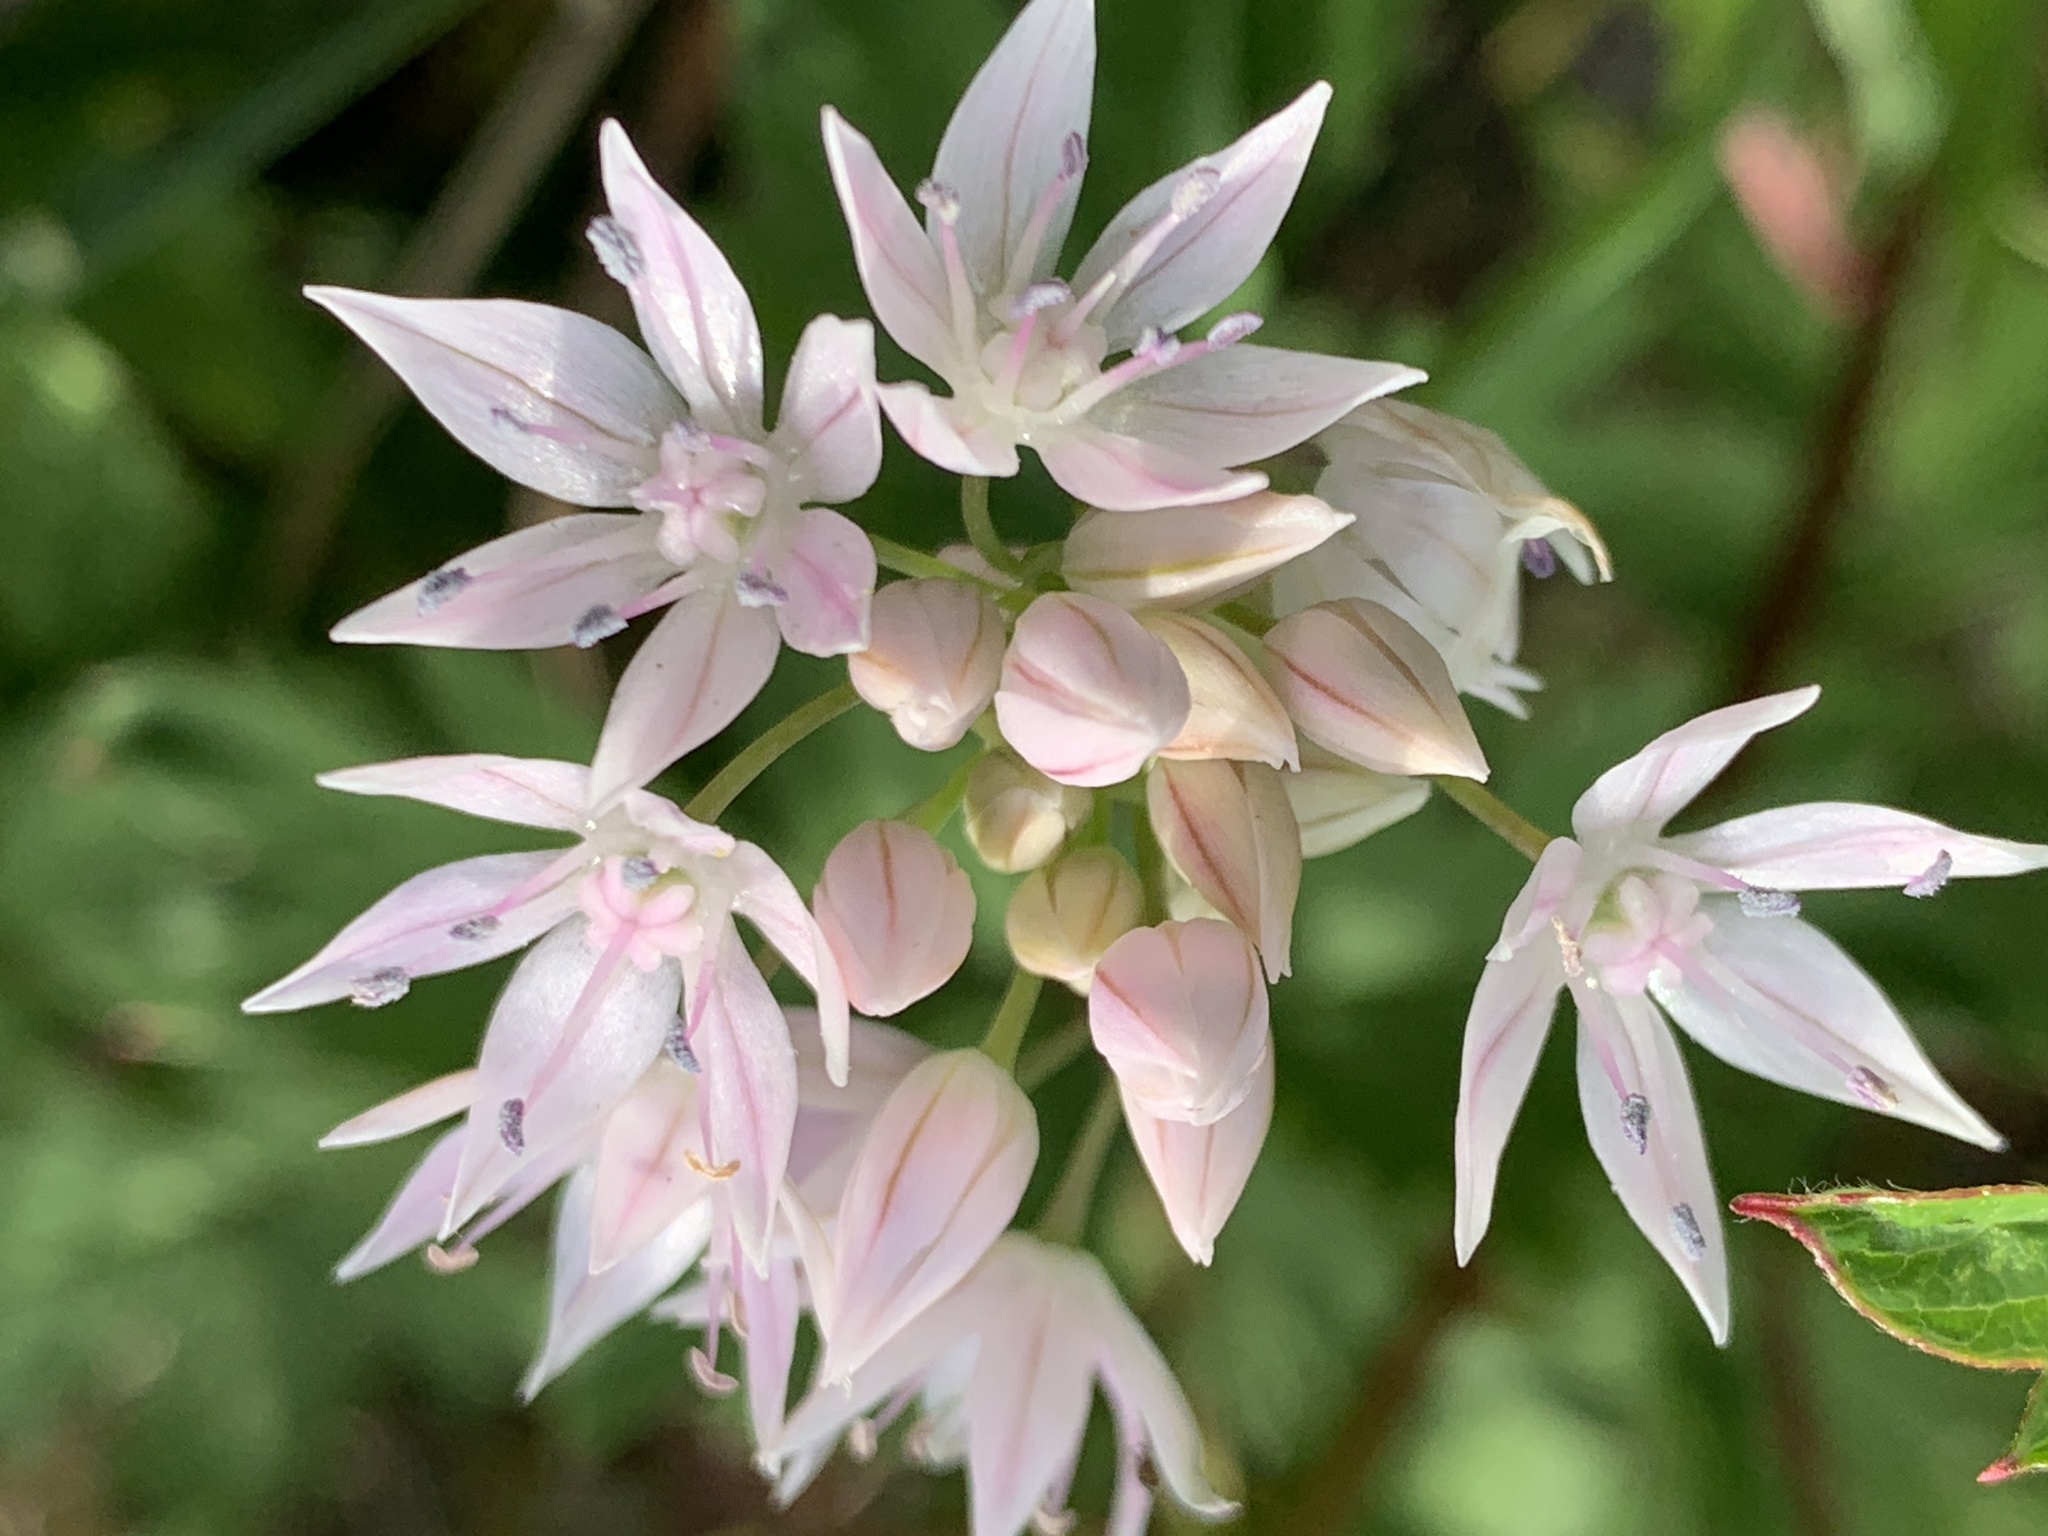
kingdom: Plantae
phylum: Tracheophyta
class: Liliopsida
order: Asparagales
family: Amaryllidaceae
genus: Allium
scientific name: Allium amplectens
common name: Narrow-leaved onion
